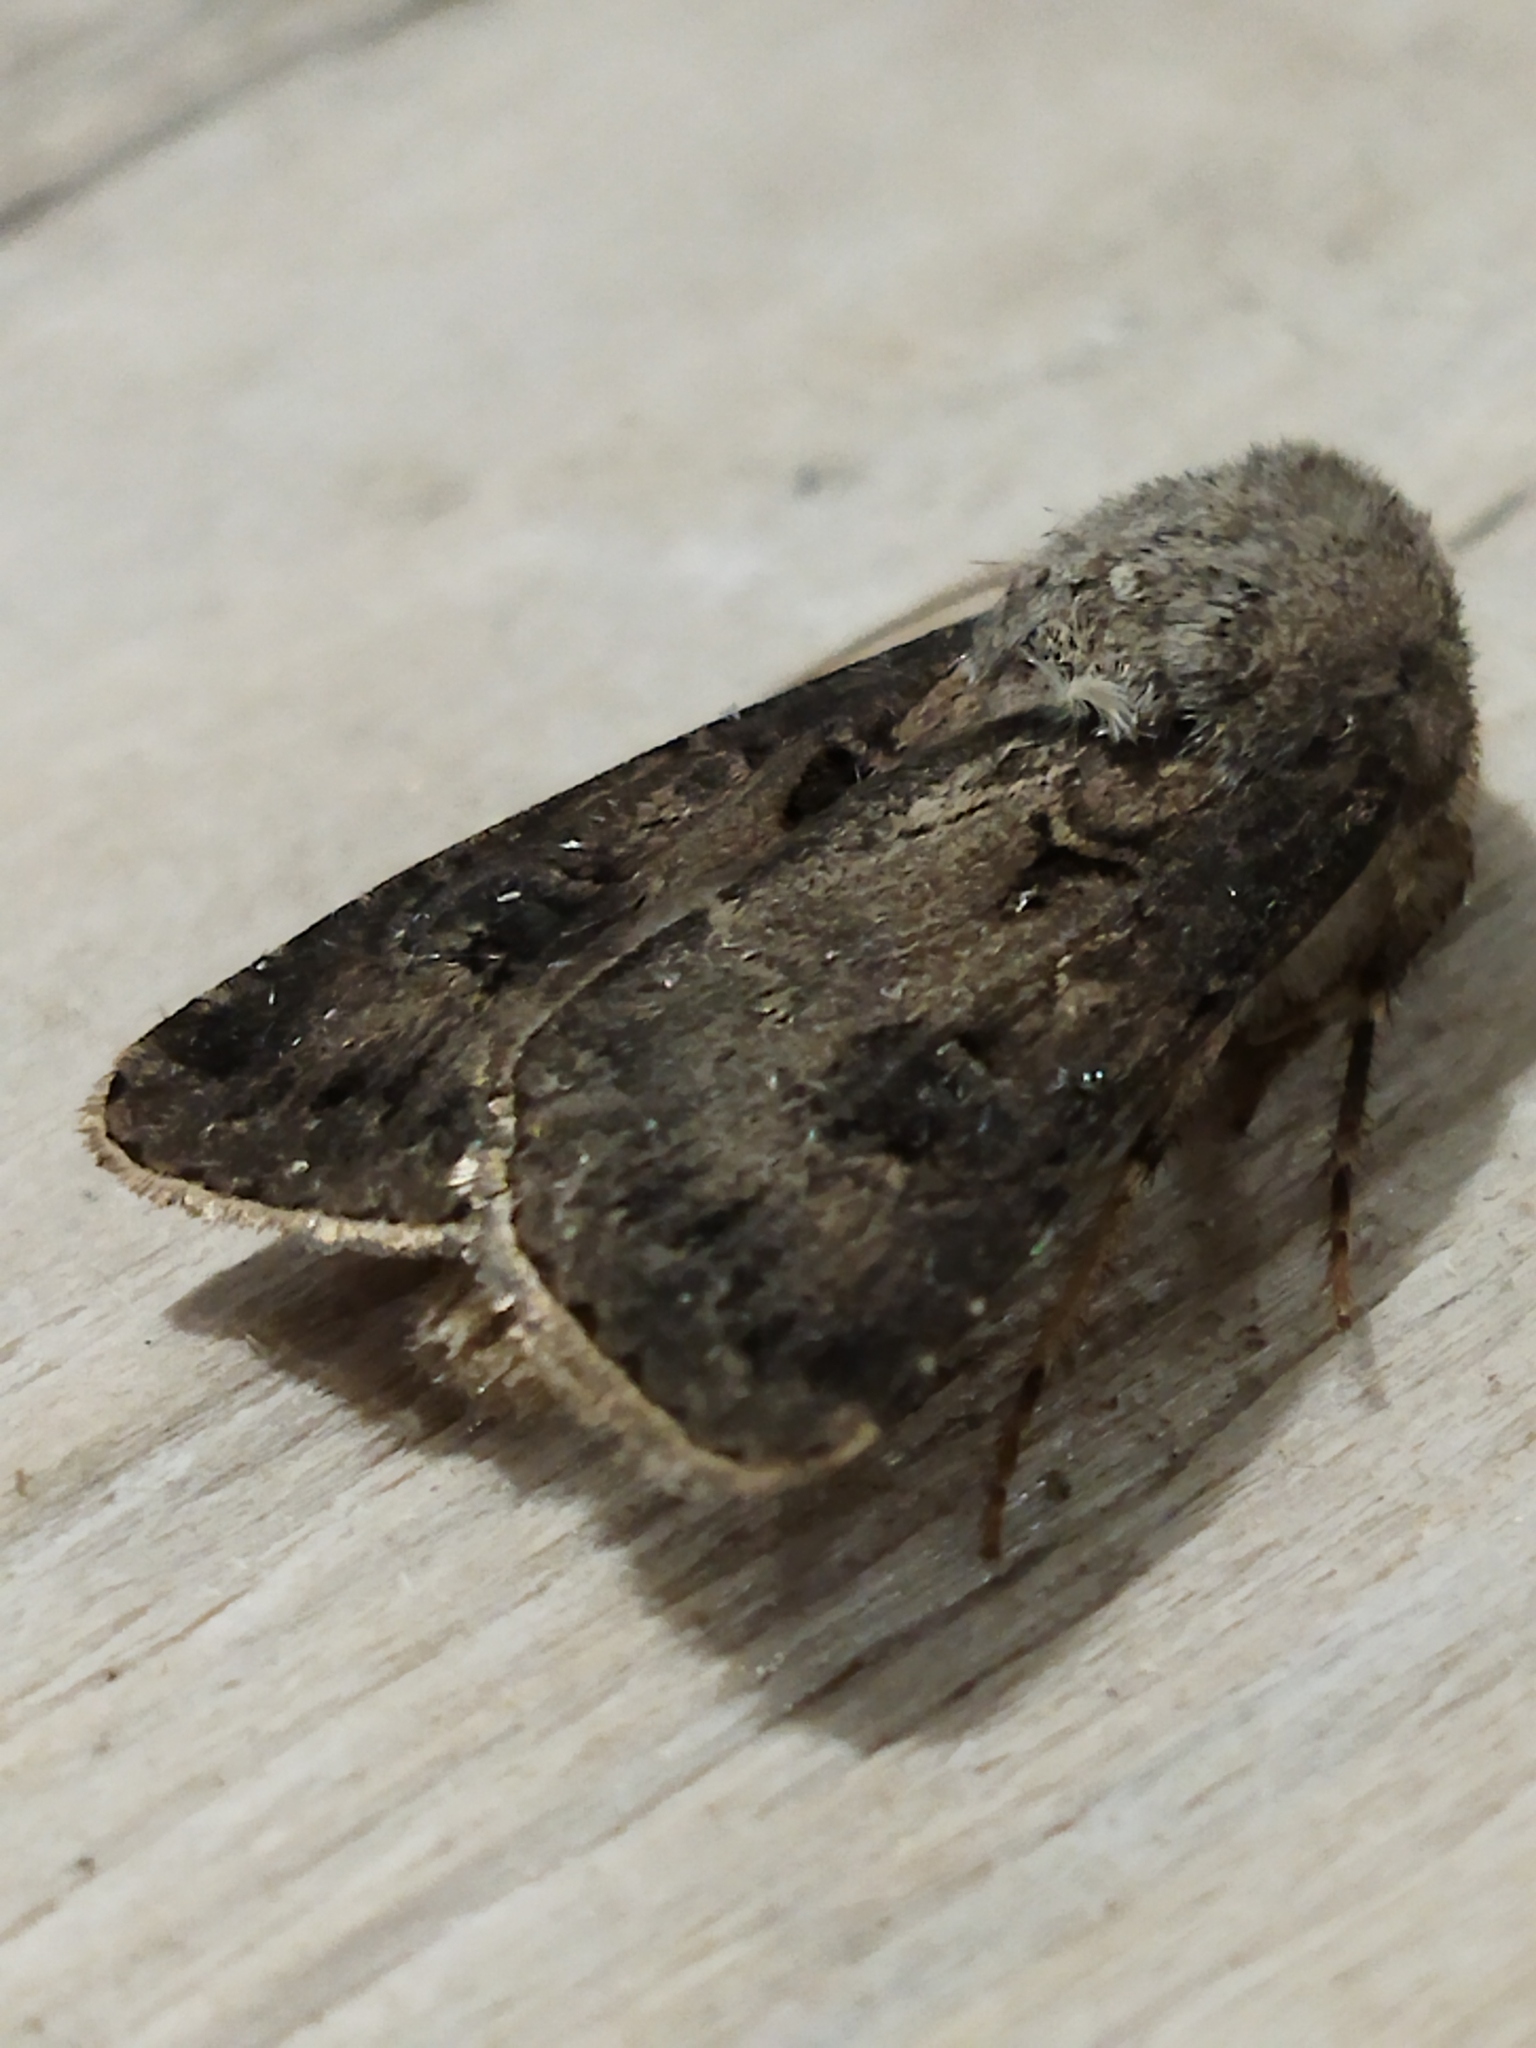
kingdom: Animalia
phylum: Arthropoda
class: Insecta
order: Lepidoptera
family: Noctuidae
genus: Agrotis
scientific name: Agrotis bigramma
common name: Great dart
